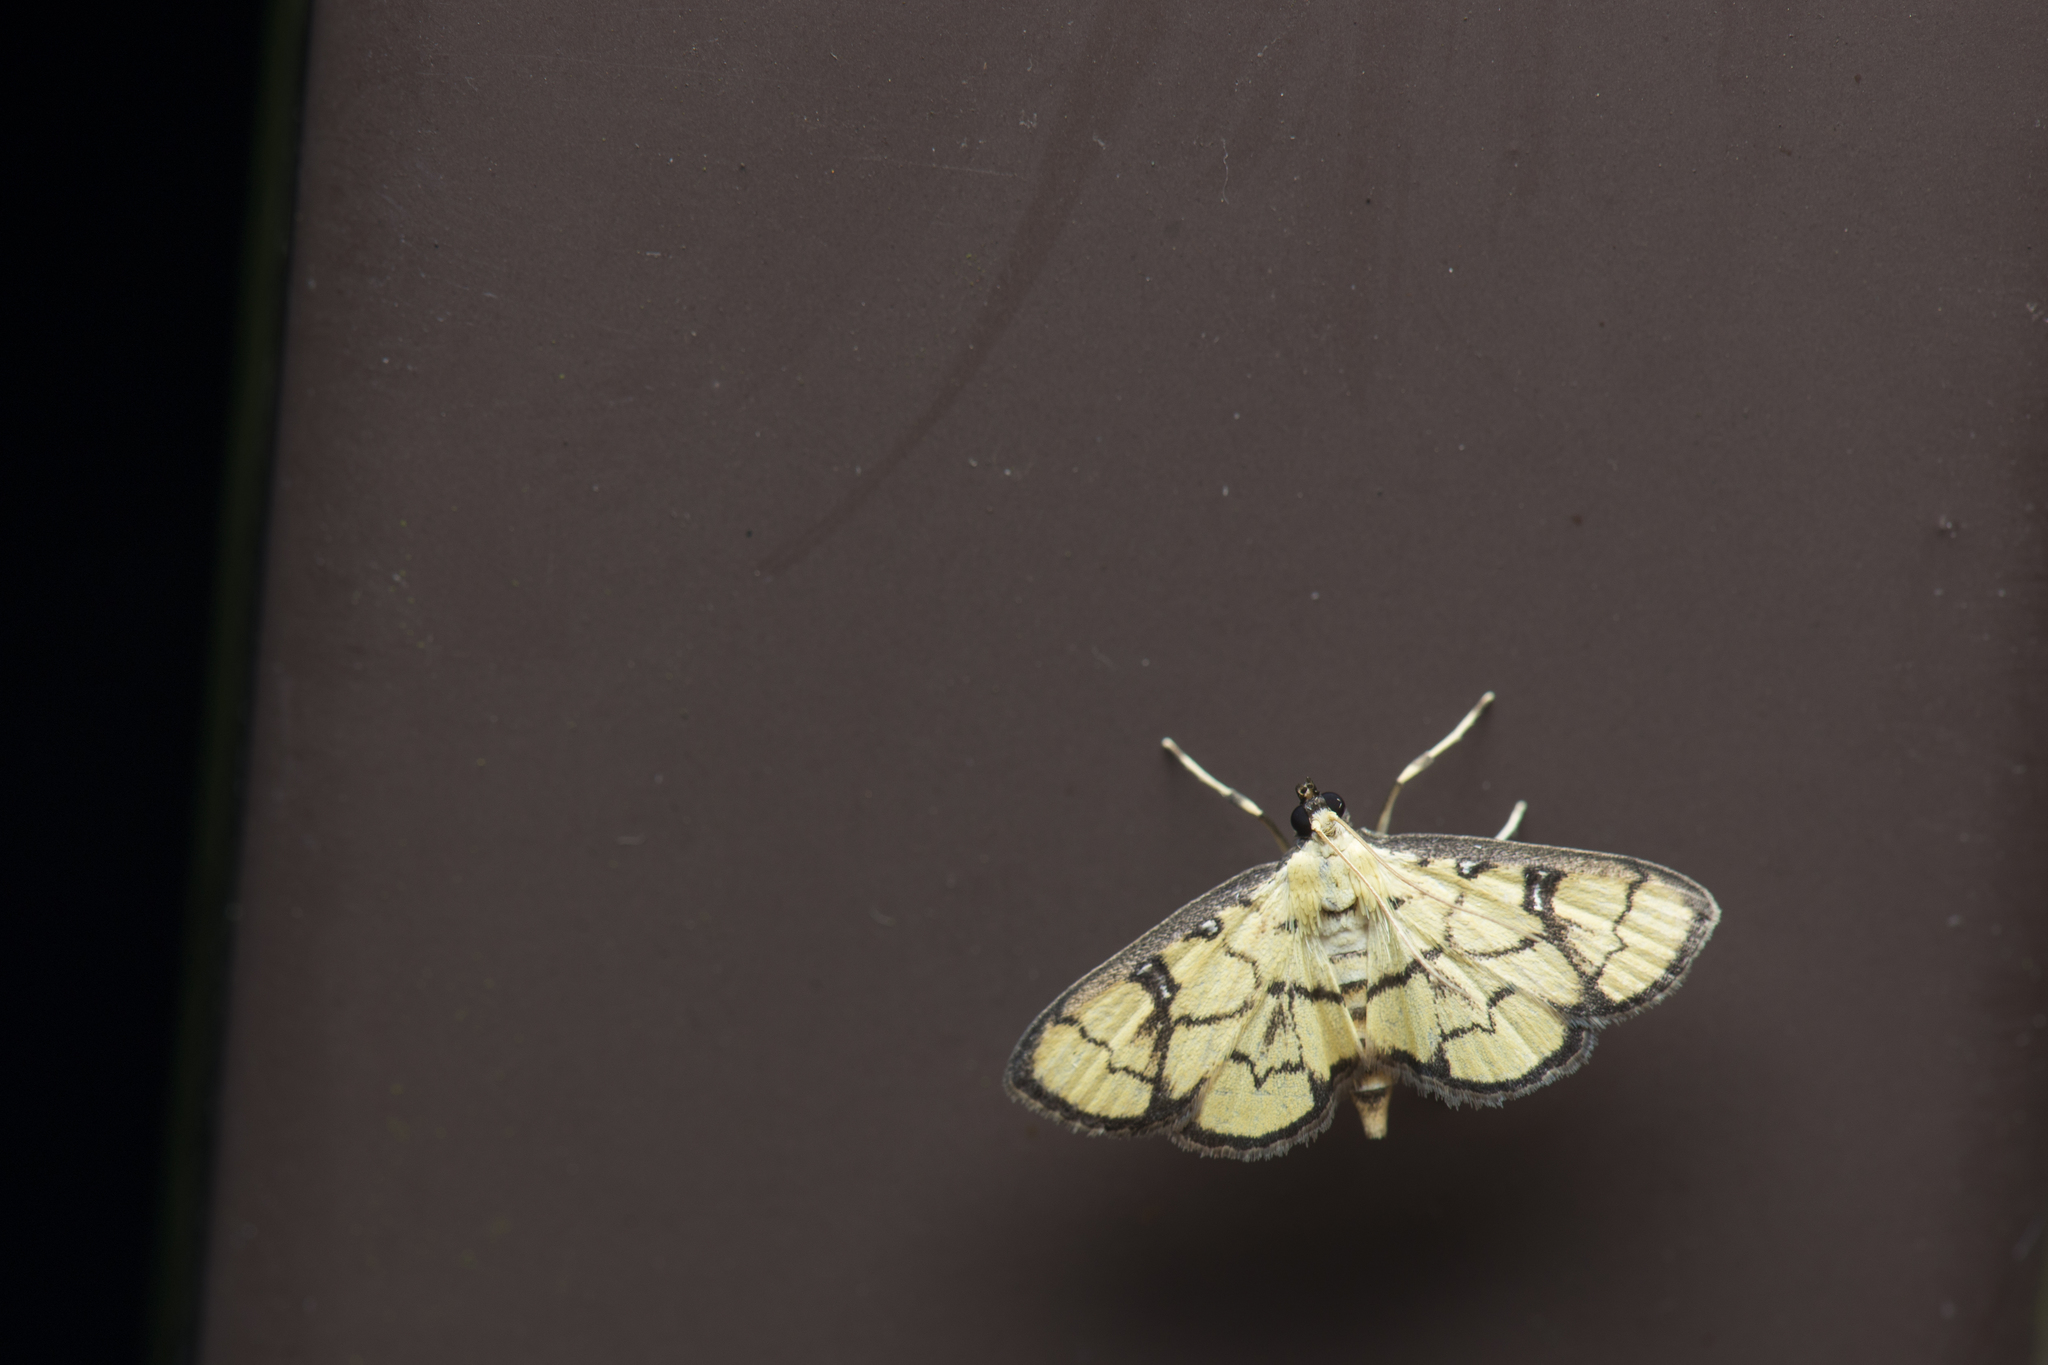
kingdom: Animalia
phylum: Arthropoda
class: Insecta
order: Lepidoptera
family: Crambidae
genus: Goniorhynchus
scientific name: Goniorhynchus butyrosa
